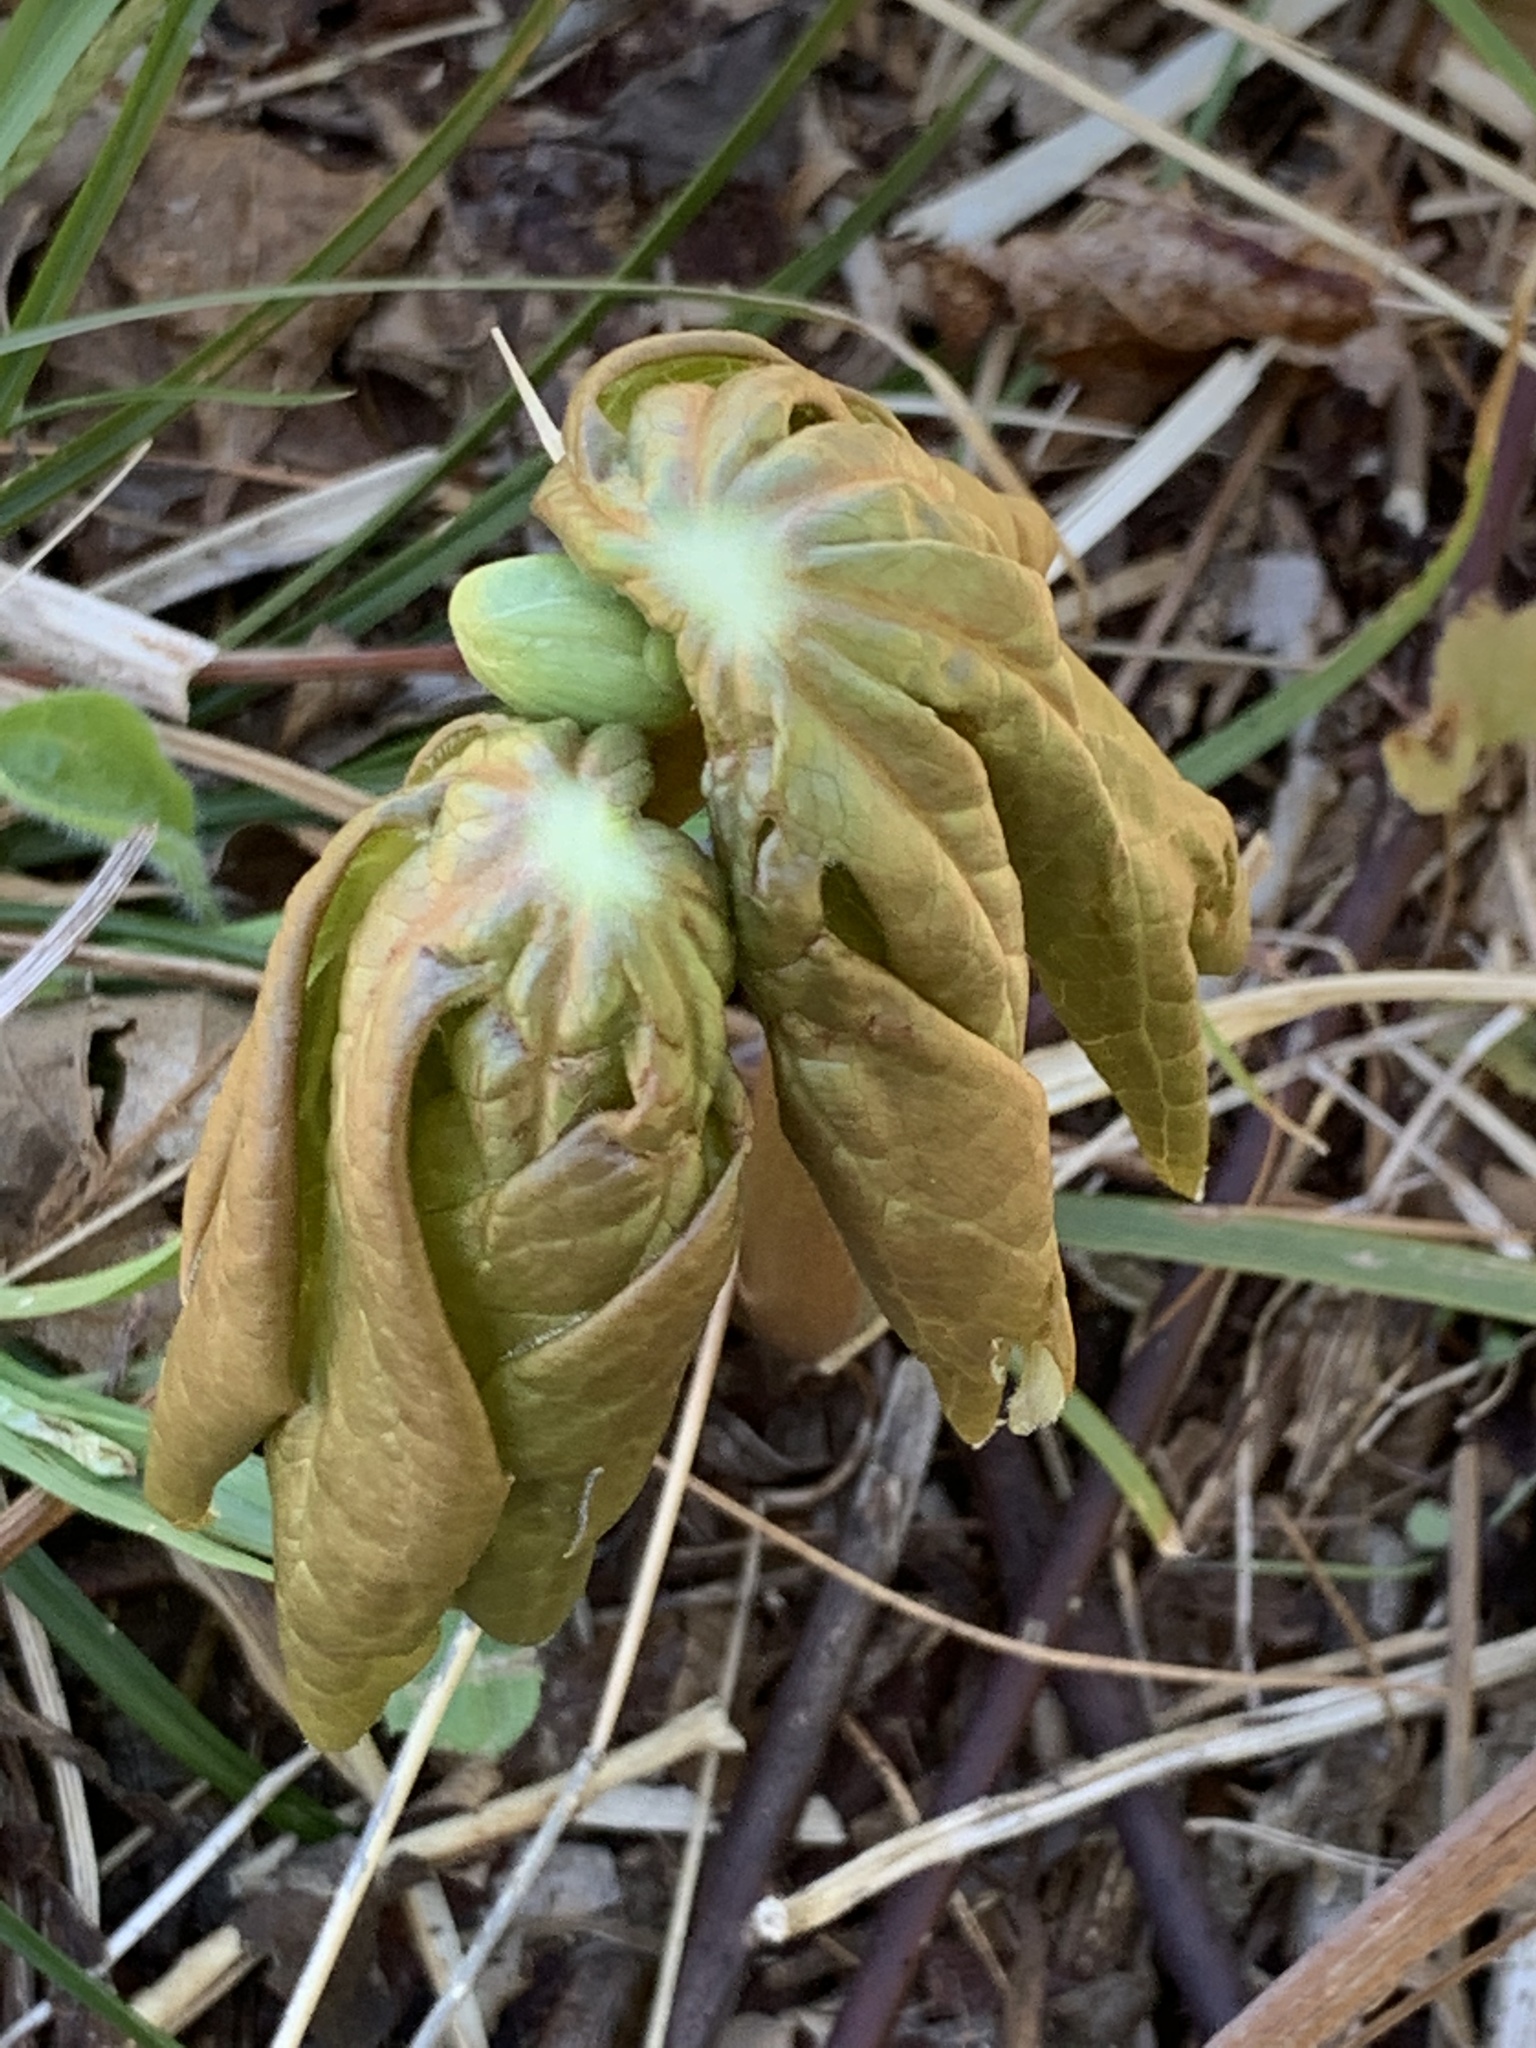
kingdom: Plantae
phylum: Tracheophyta
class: Magnoliopsida
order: Ranunculales
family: Berberidaceae
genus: Podophyllum
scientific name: Podophyllum peltatum
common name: Wild mandrake
